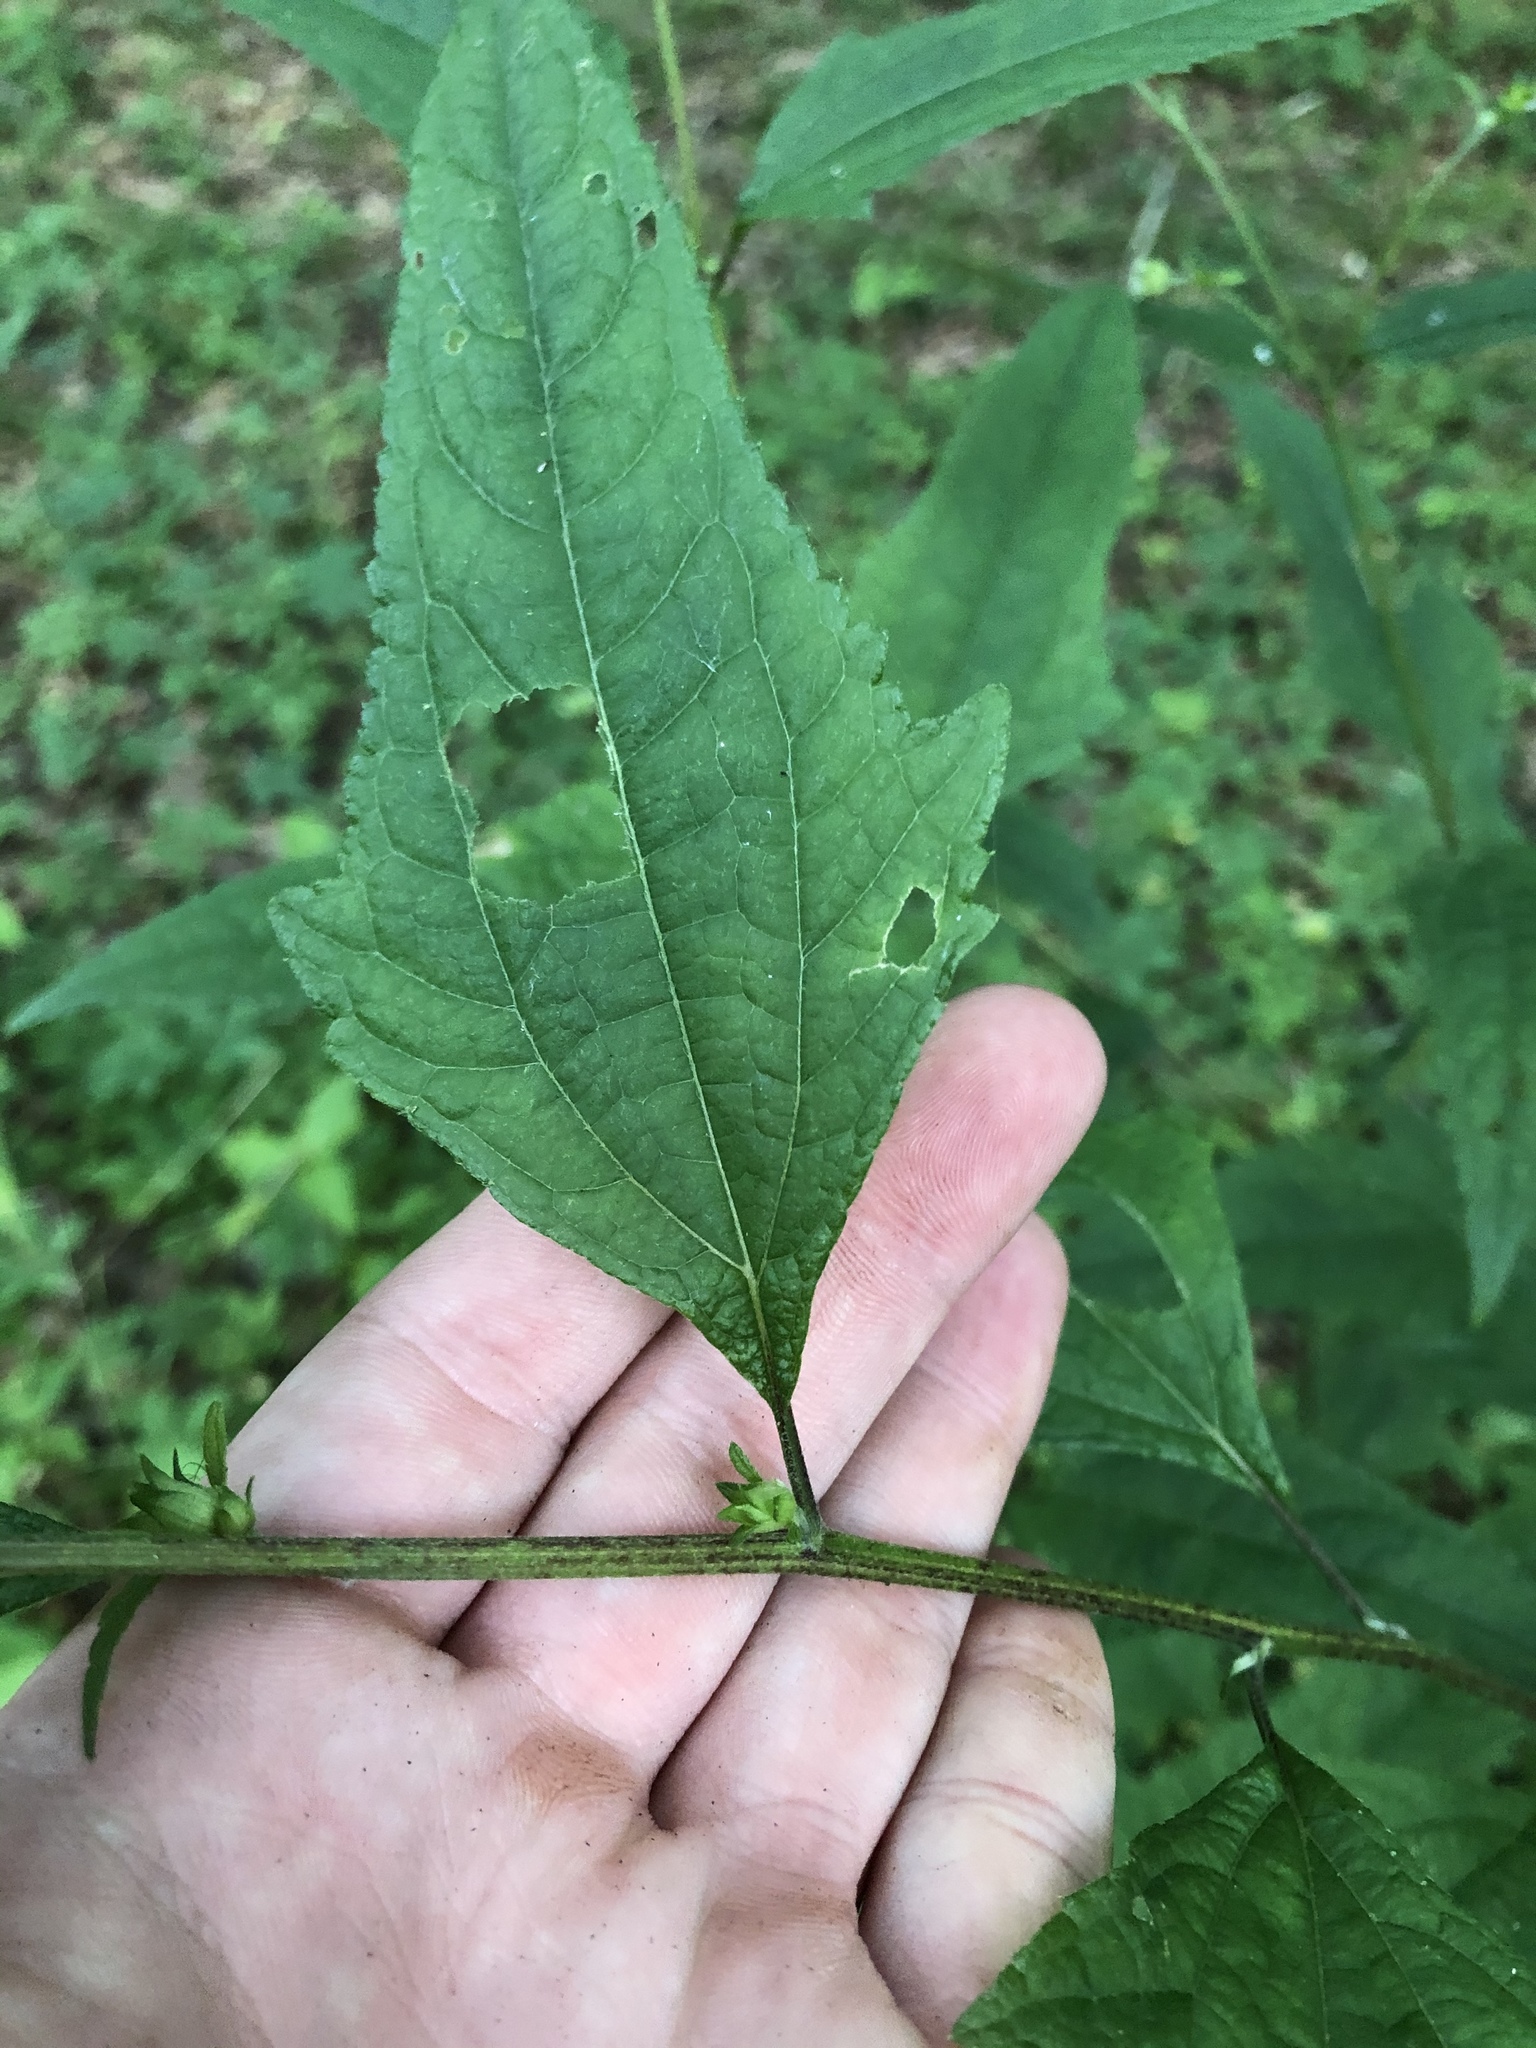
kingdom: Plantae
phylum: Tracheophyta
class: Magnoliopsida
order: Asterales
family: Asteraceae
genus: Melanthera
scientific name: Melanthera nivea
